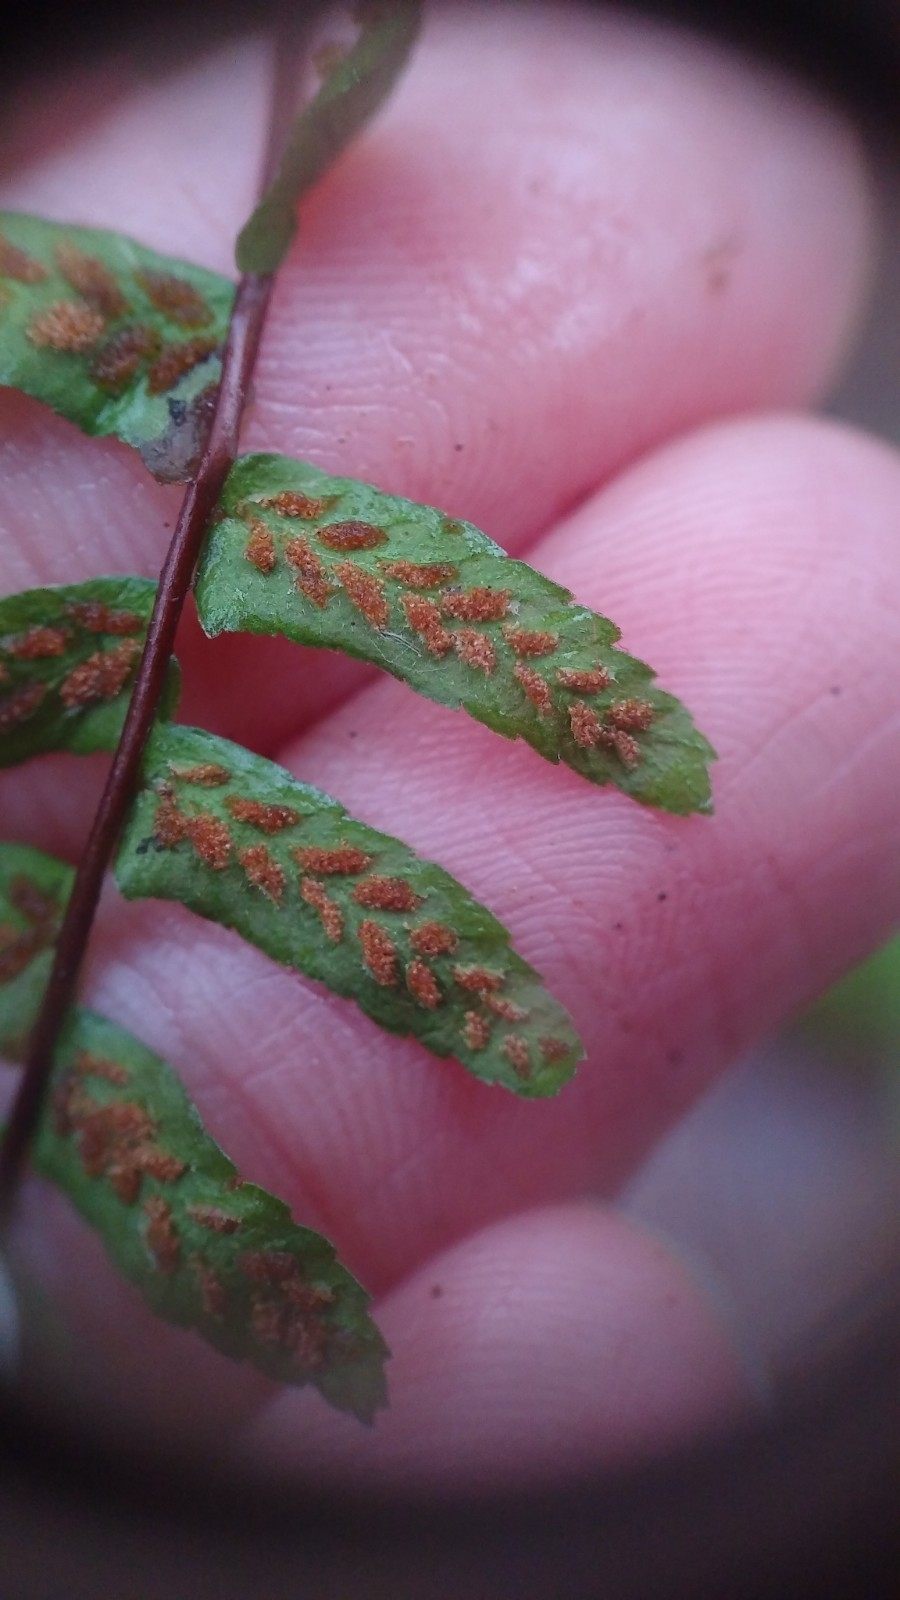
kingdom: Plantae
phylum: Tracheophyta
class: Polypodiopsida
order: Polypodiales
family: Aspleniaceae
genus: Asplenium
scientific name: Asplenium platyneuron
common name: Ebony spleenwort
